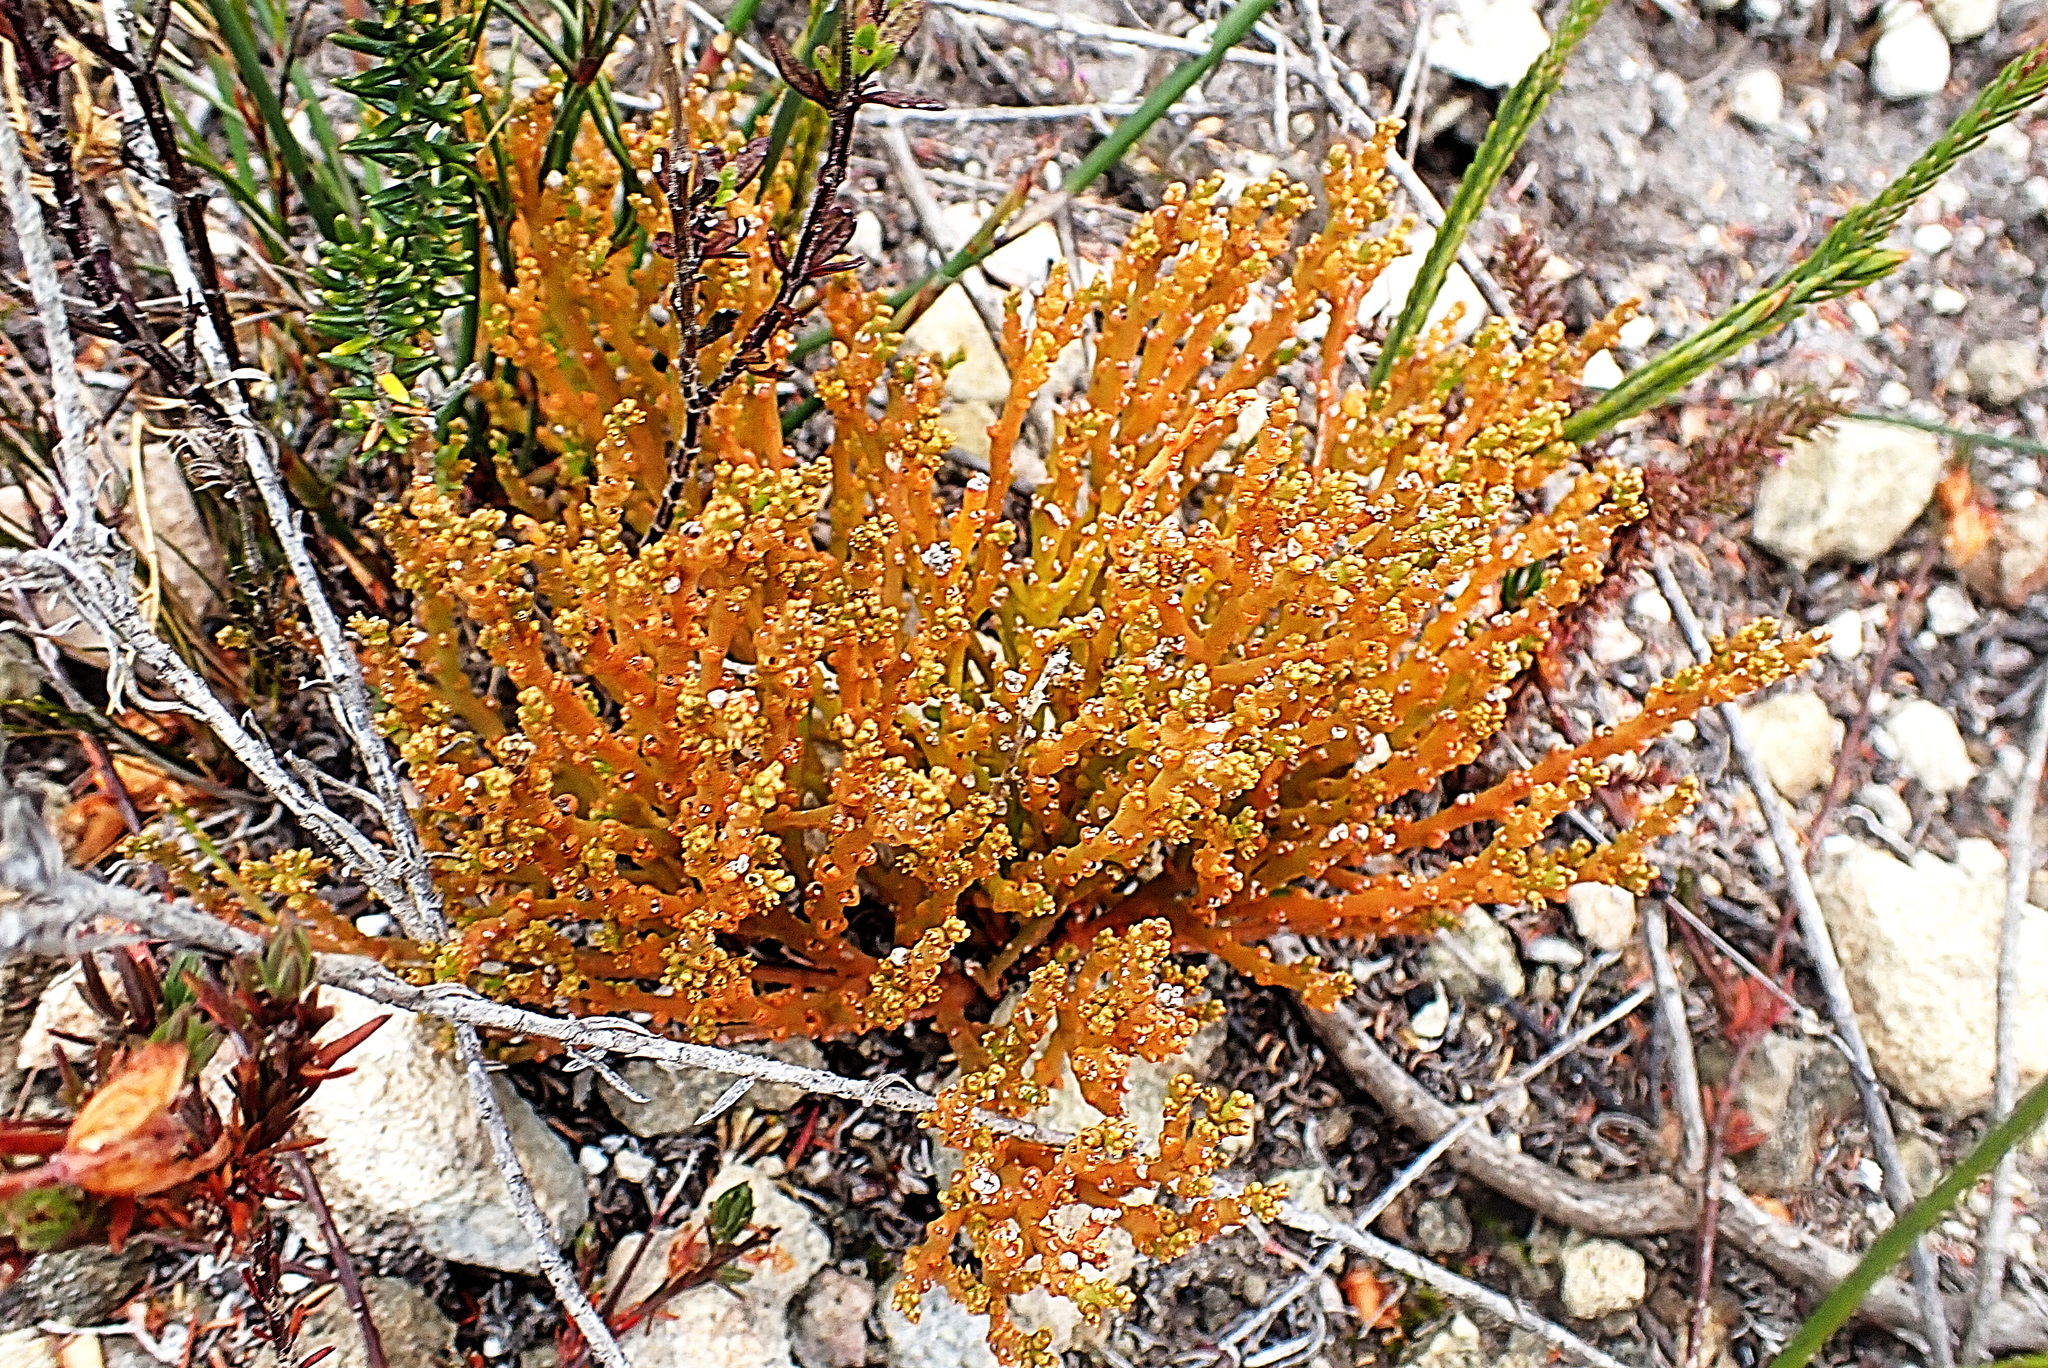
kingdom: Plantae
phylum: Tracheophyta
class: Magnoliopsida
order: Santalales
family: Thesiaceae
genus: Thesium
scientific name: Thesium fragile
